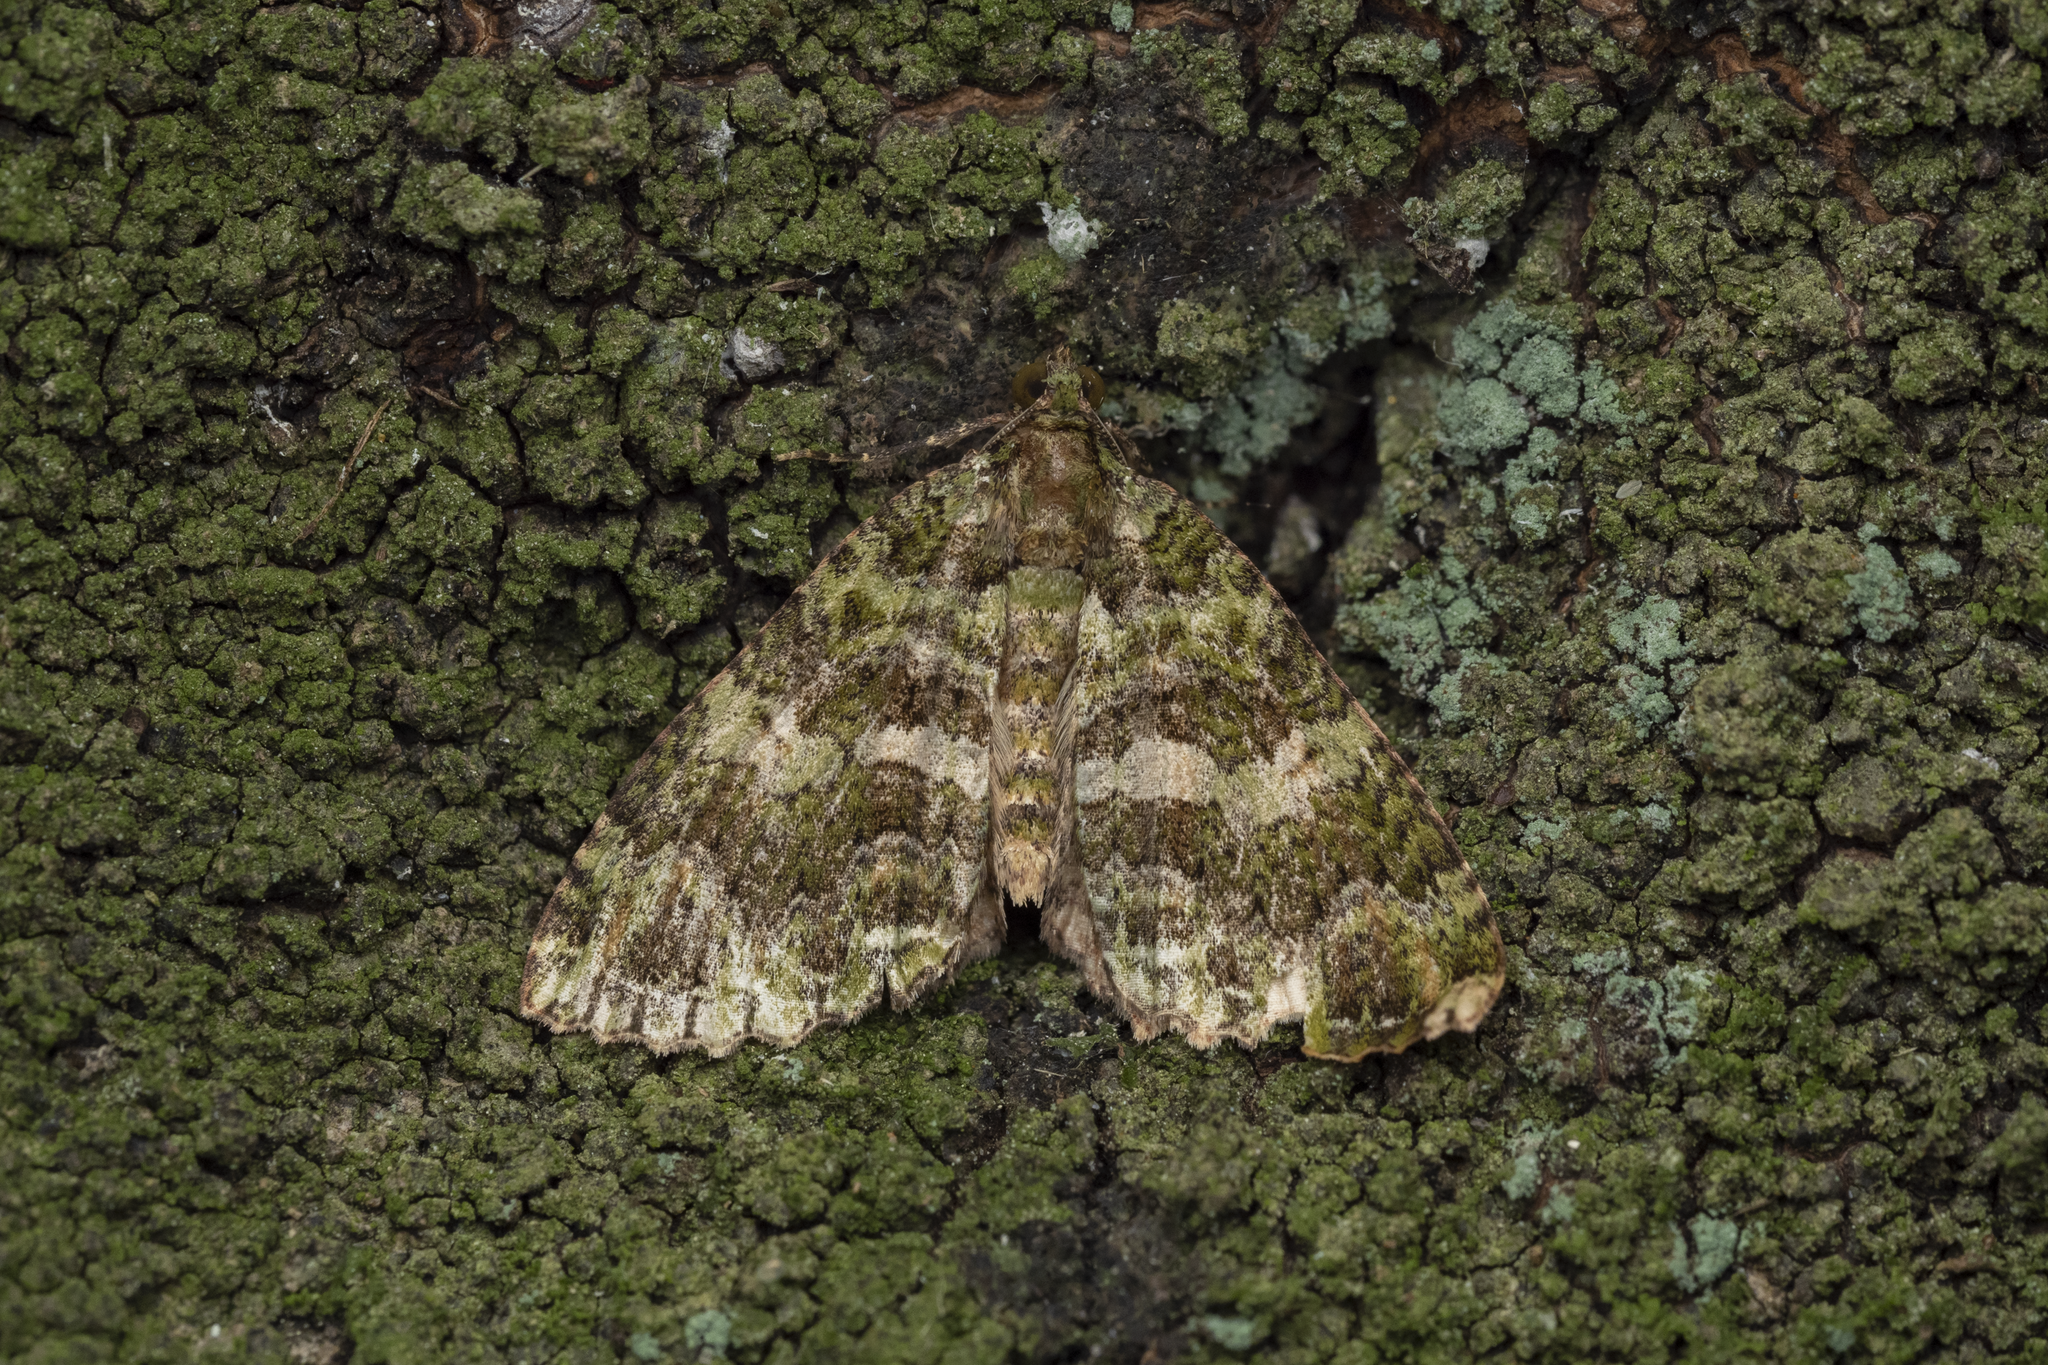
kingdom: Animalia
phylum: Arthropoda
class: Insecta
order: Lepidoptera
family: Geometridae
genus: Austrocidaria
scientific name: Austrocidaria similata
